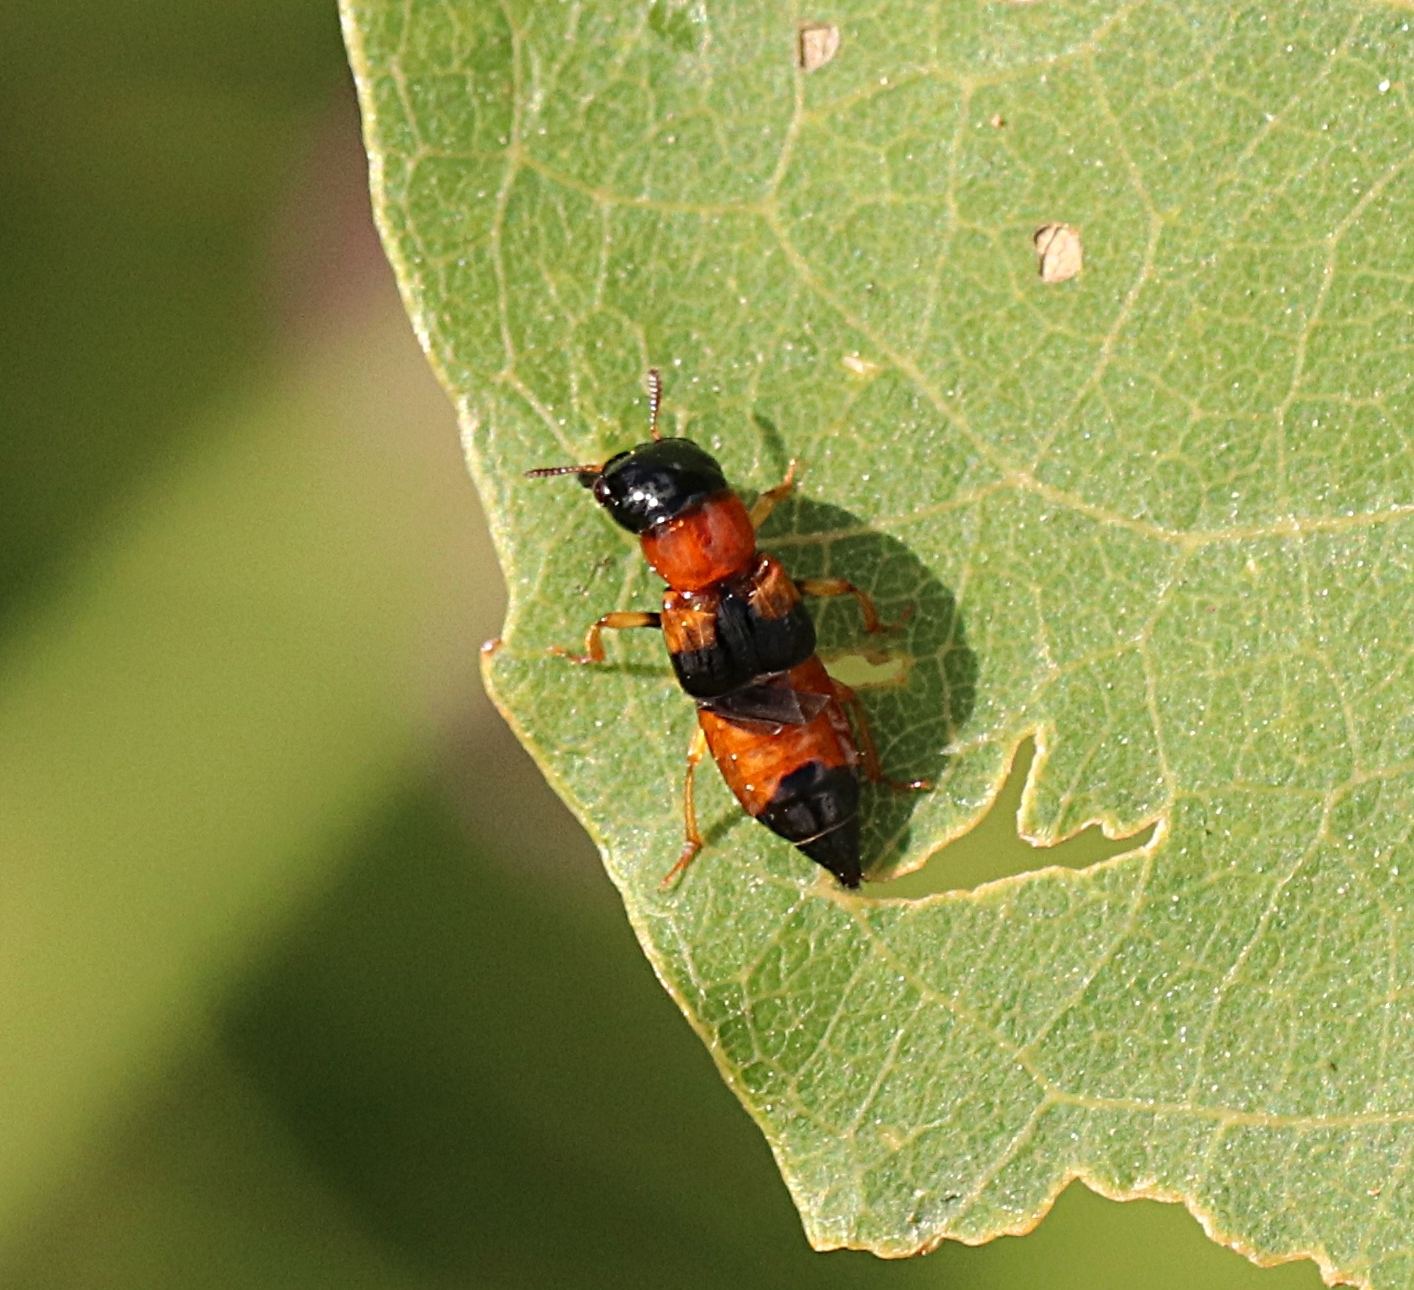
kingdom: Animalia
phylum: Arthropoda
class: Insecta
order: Coleoptera
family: Staphylinidae
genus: Oxyporus
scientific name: Oxyporus rufus
